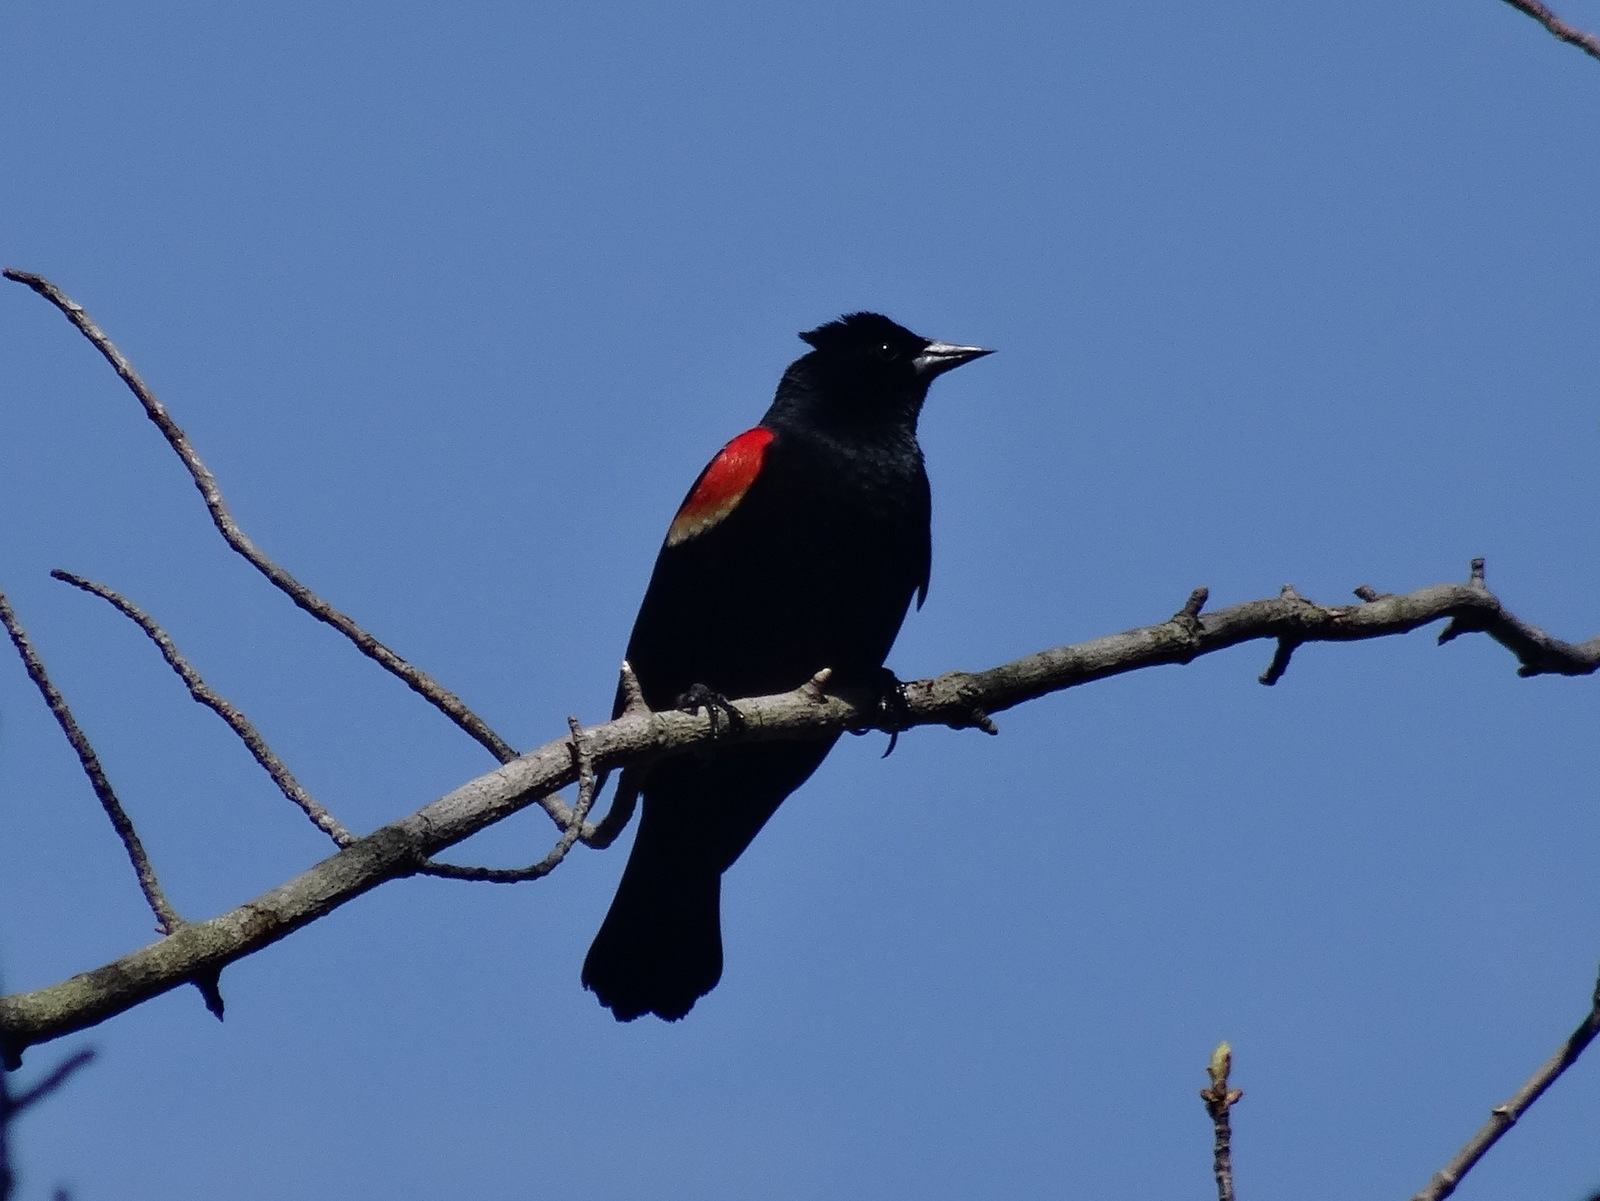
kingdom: Animalia
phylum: Chordata
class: Aves
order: Passeriformes
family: Icteridae
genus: Agelaius
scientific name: Agelaius phoeniceus
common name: Red-winged blackbird
